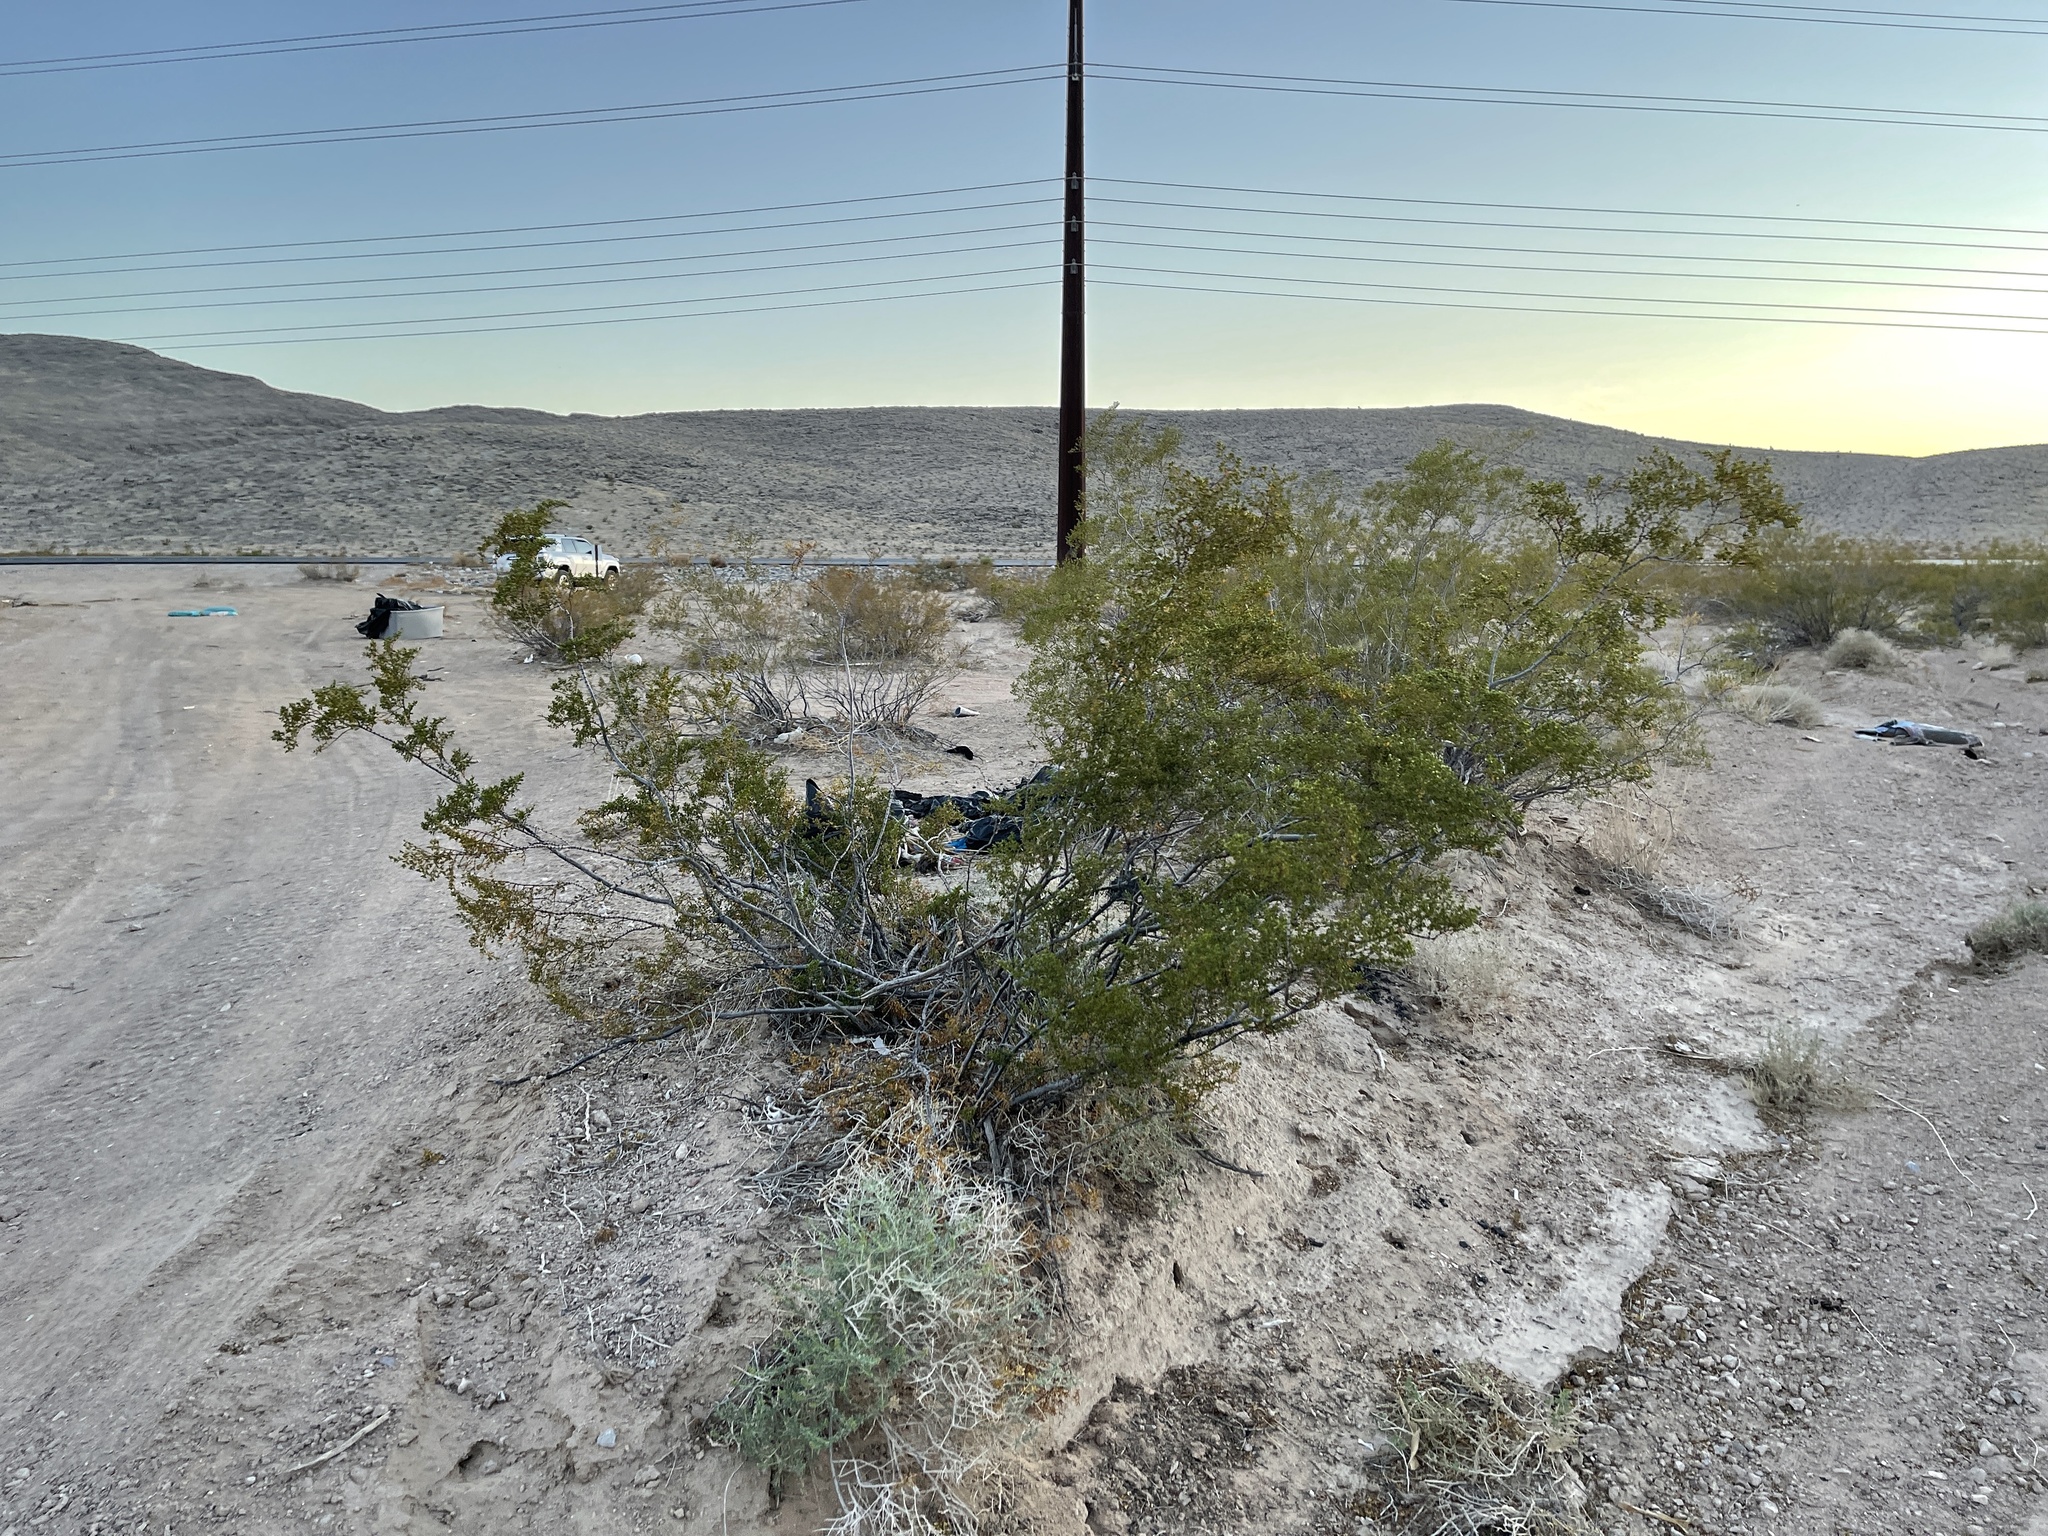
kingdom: Plantae
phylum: Tracheophyta
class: Magnoliopsida
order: Zygophyllales
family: Zygophyllaceae
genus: Larrea
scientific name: Larrea tridentata
